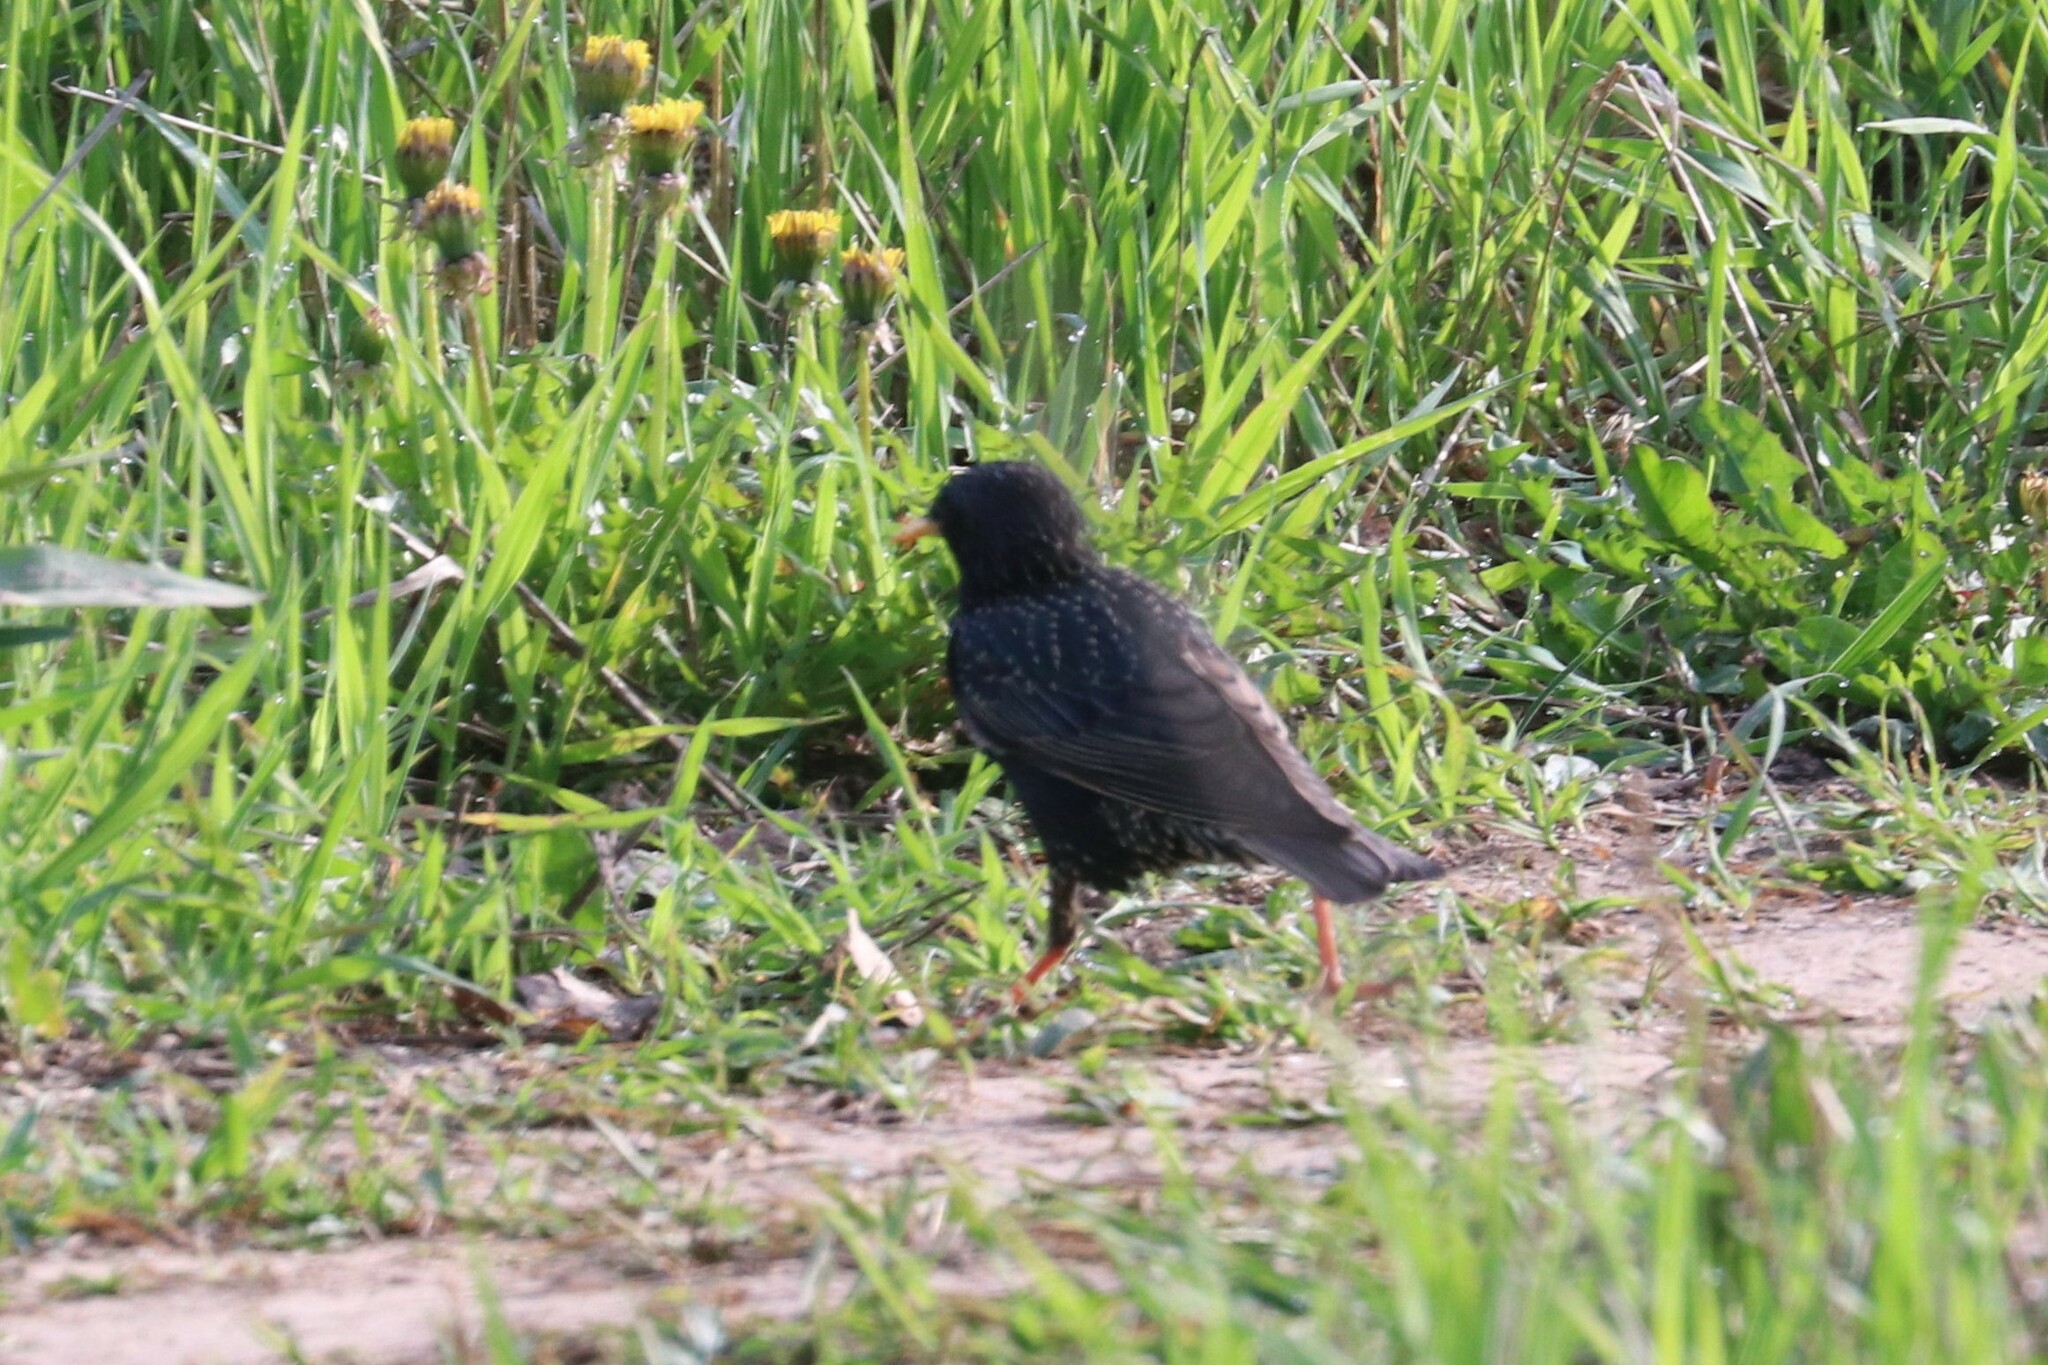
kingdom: Animalia
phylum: Chordata
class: Aves
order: Passeriformes
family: Sturnidae
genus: Sturnus
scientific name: Sturnus vulgaris
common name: Common starling
